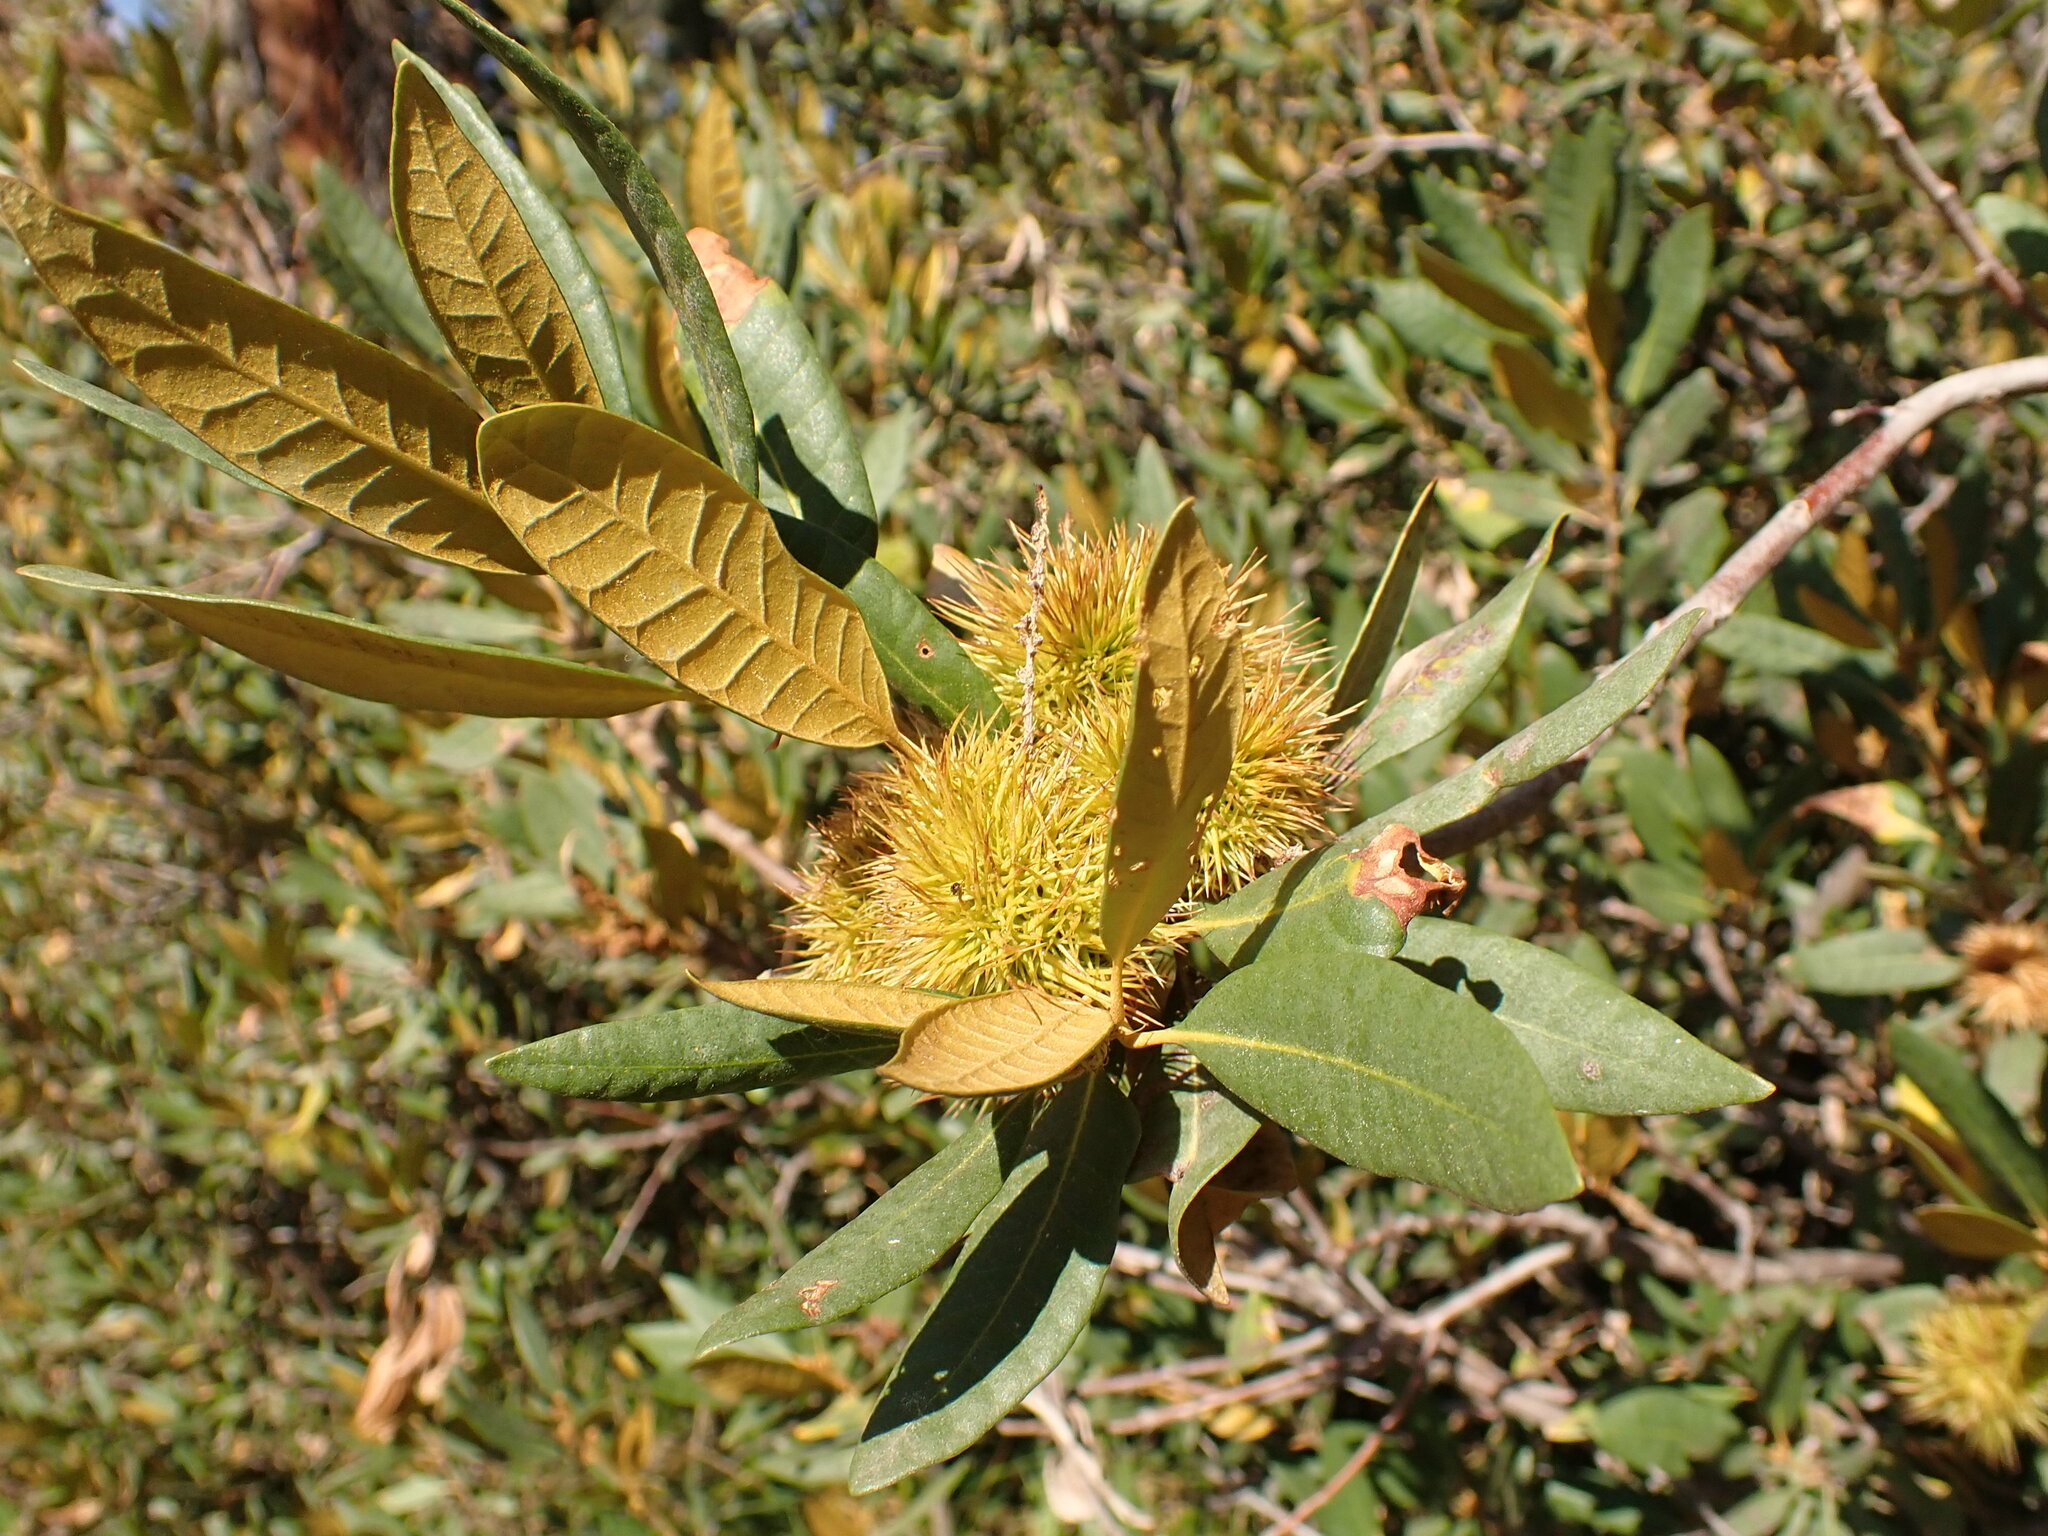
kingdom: Plantae
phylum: Tracheophyta
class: Magnoliopsida
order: Fagales
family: Fagaceae
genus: Chrysolepis
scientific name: Chrysolepis sempervirens
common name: Bush chinquapin
